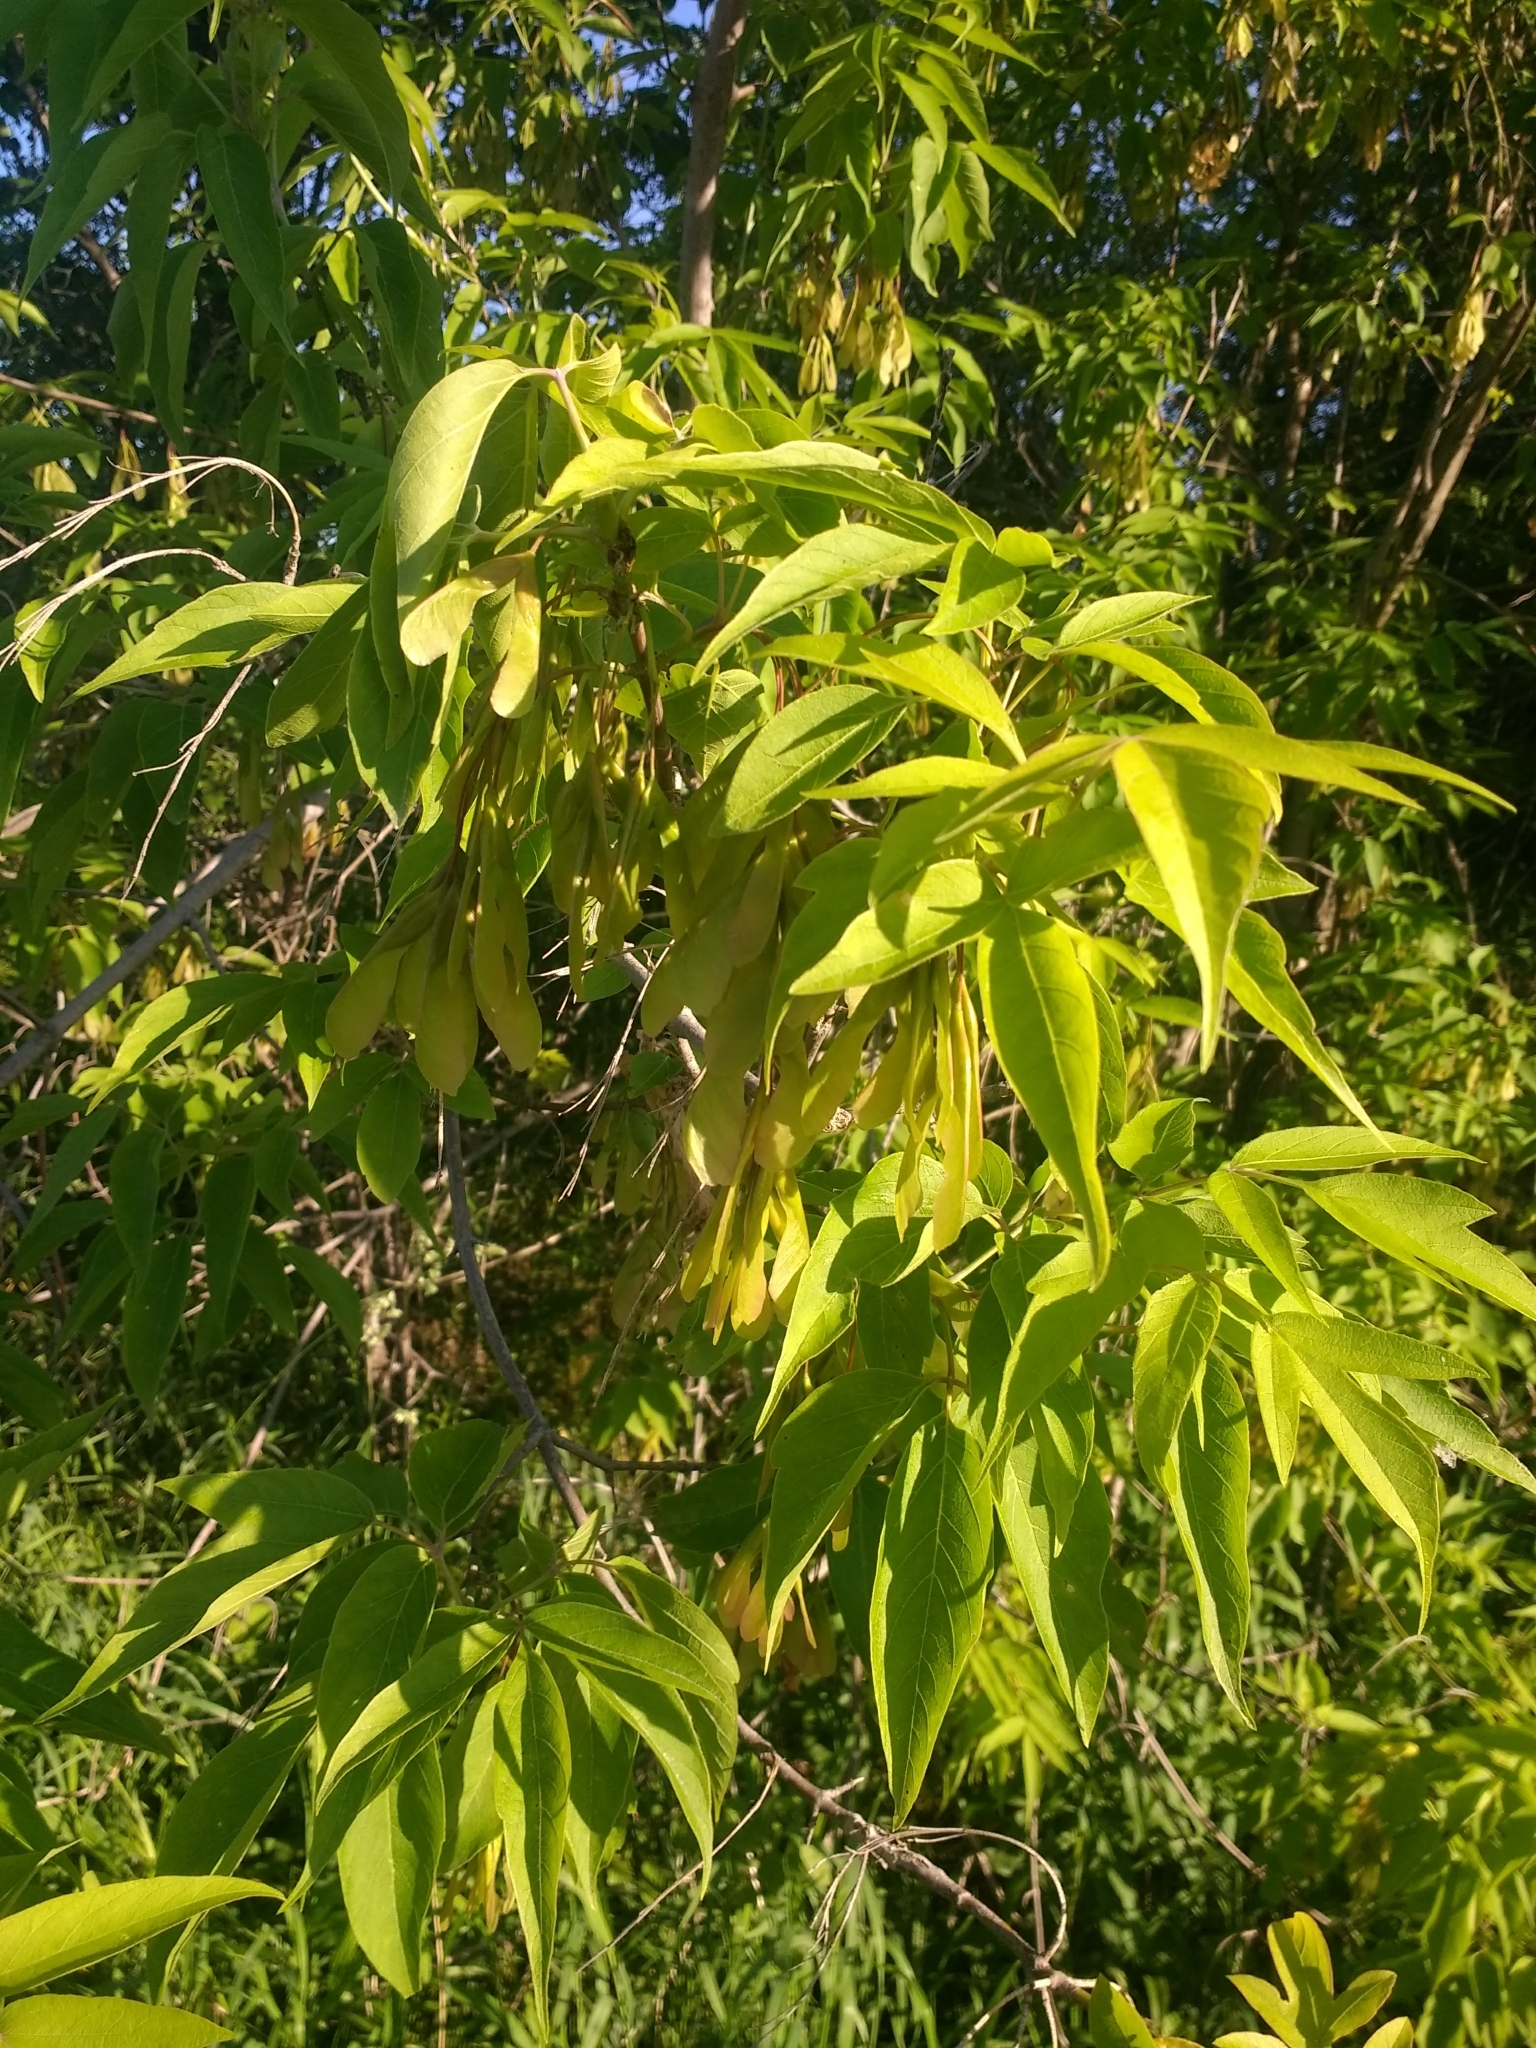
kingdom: Plantae
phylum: Tracheophyta
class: Magnoliopsida
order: Sapindales
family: Sapindaceae
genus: Acer
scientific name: Acer negundo
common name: Ashleaf maple
